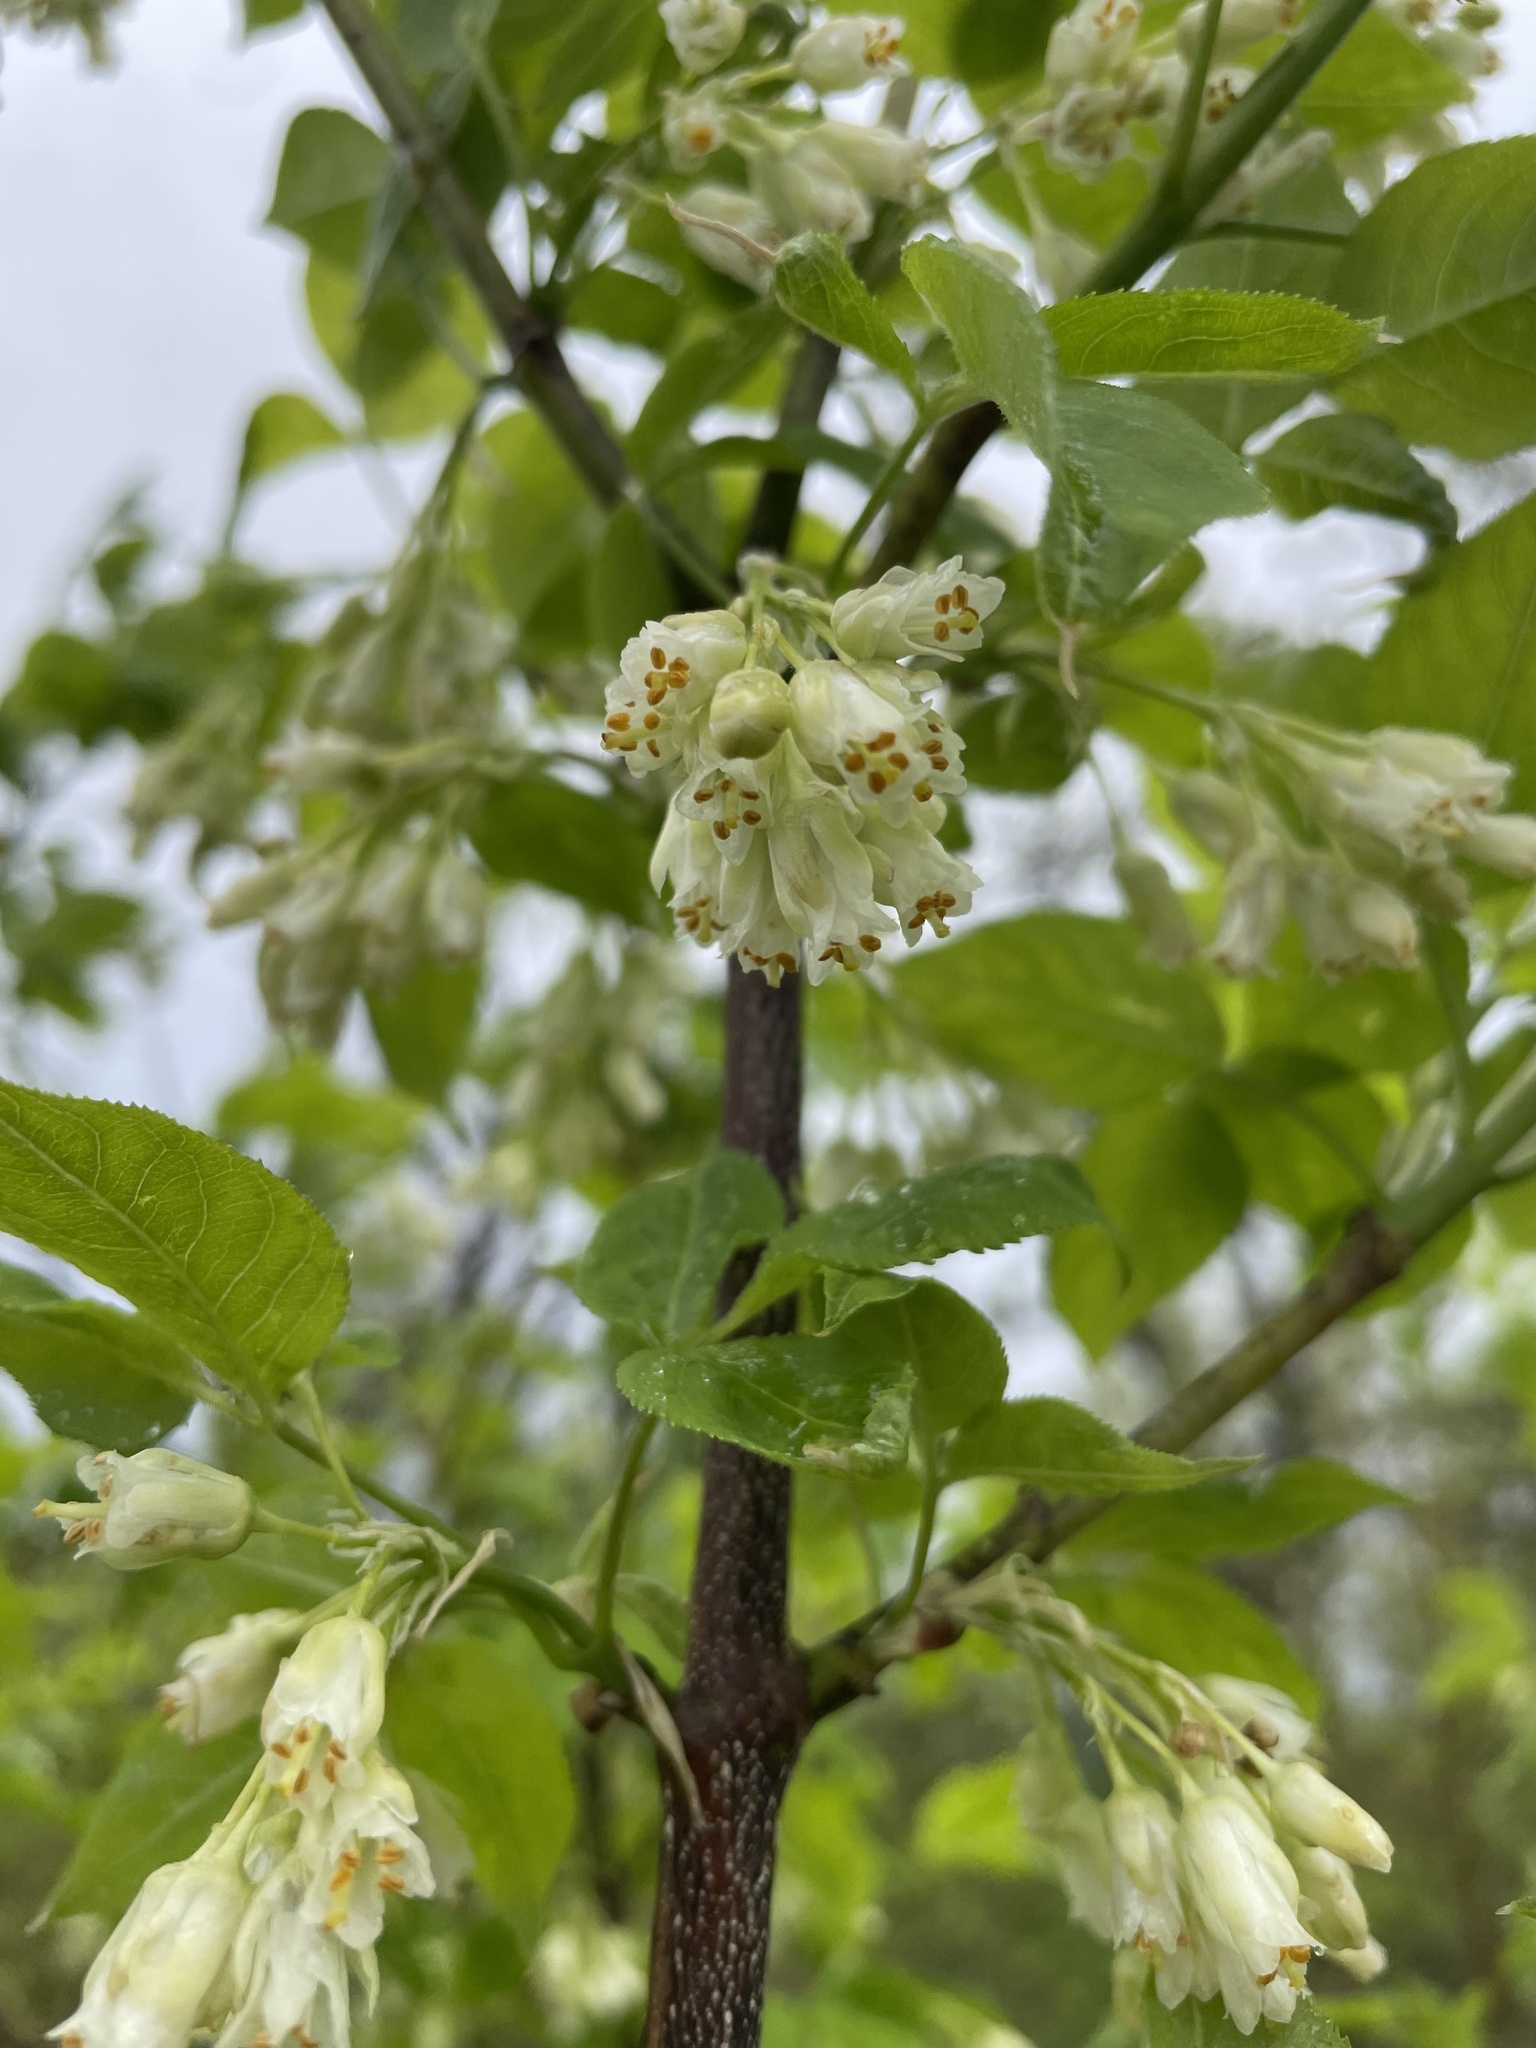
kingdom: Plantae
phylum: Tracheophyta
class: Magnoliopsida
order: Crossosomatales
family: Staphyleaceae
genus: Staphylea
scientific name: Staphylea trifolia
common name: American bladdernut
